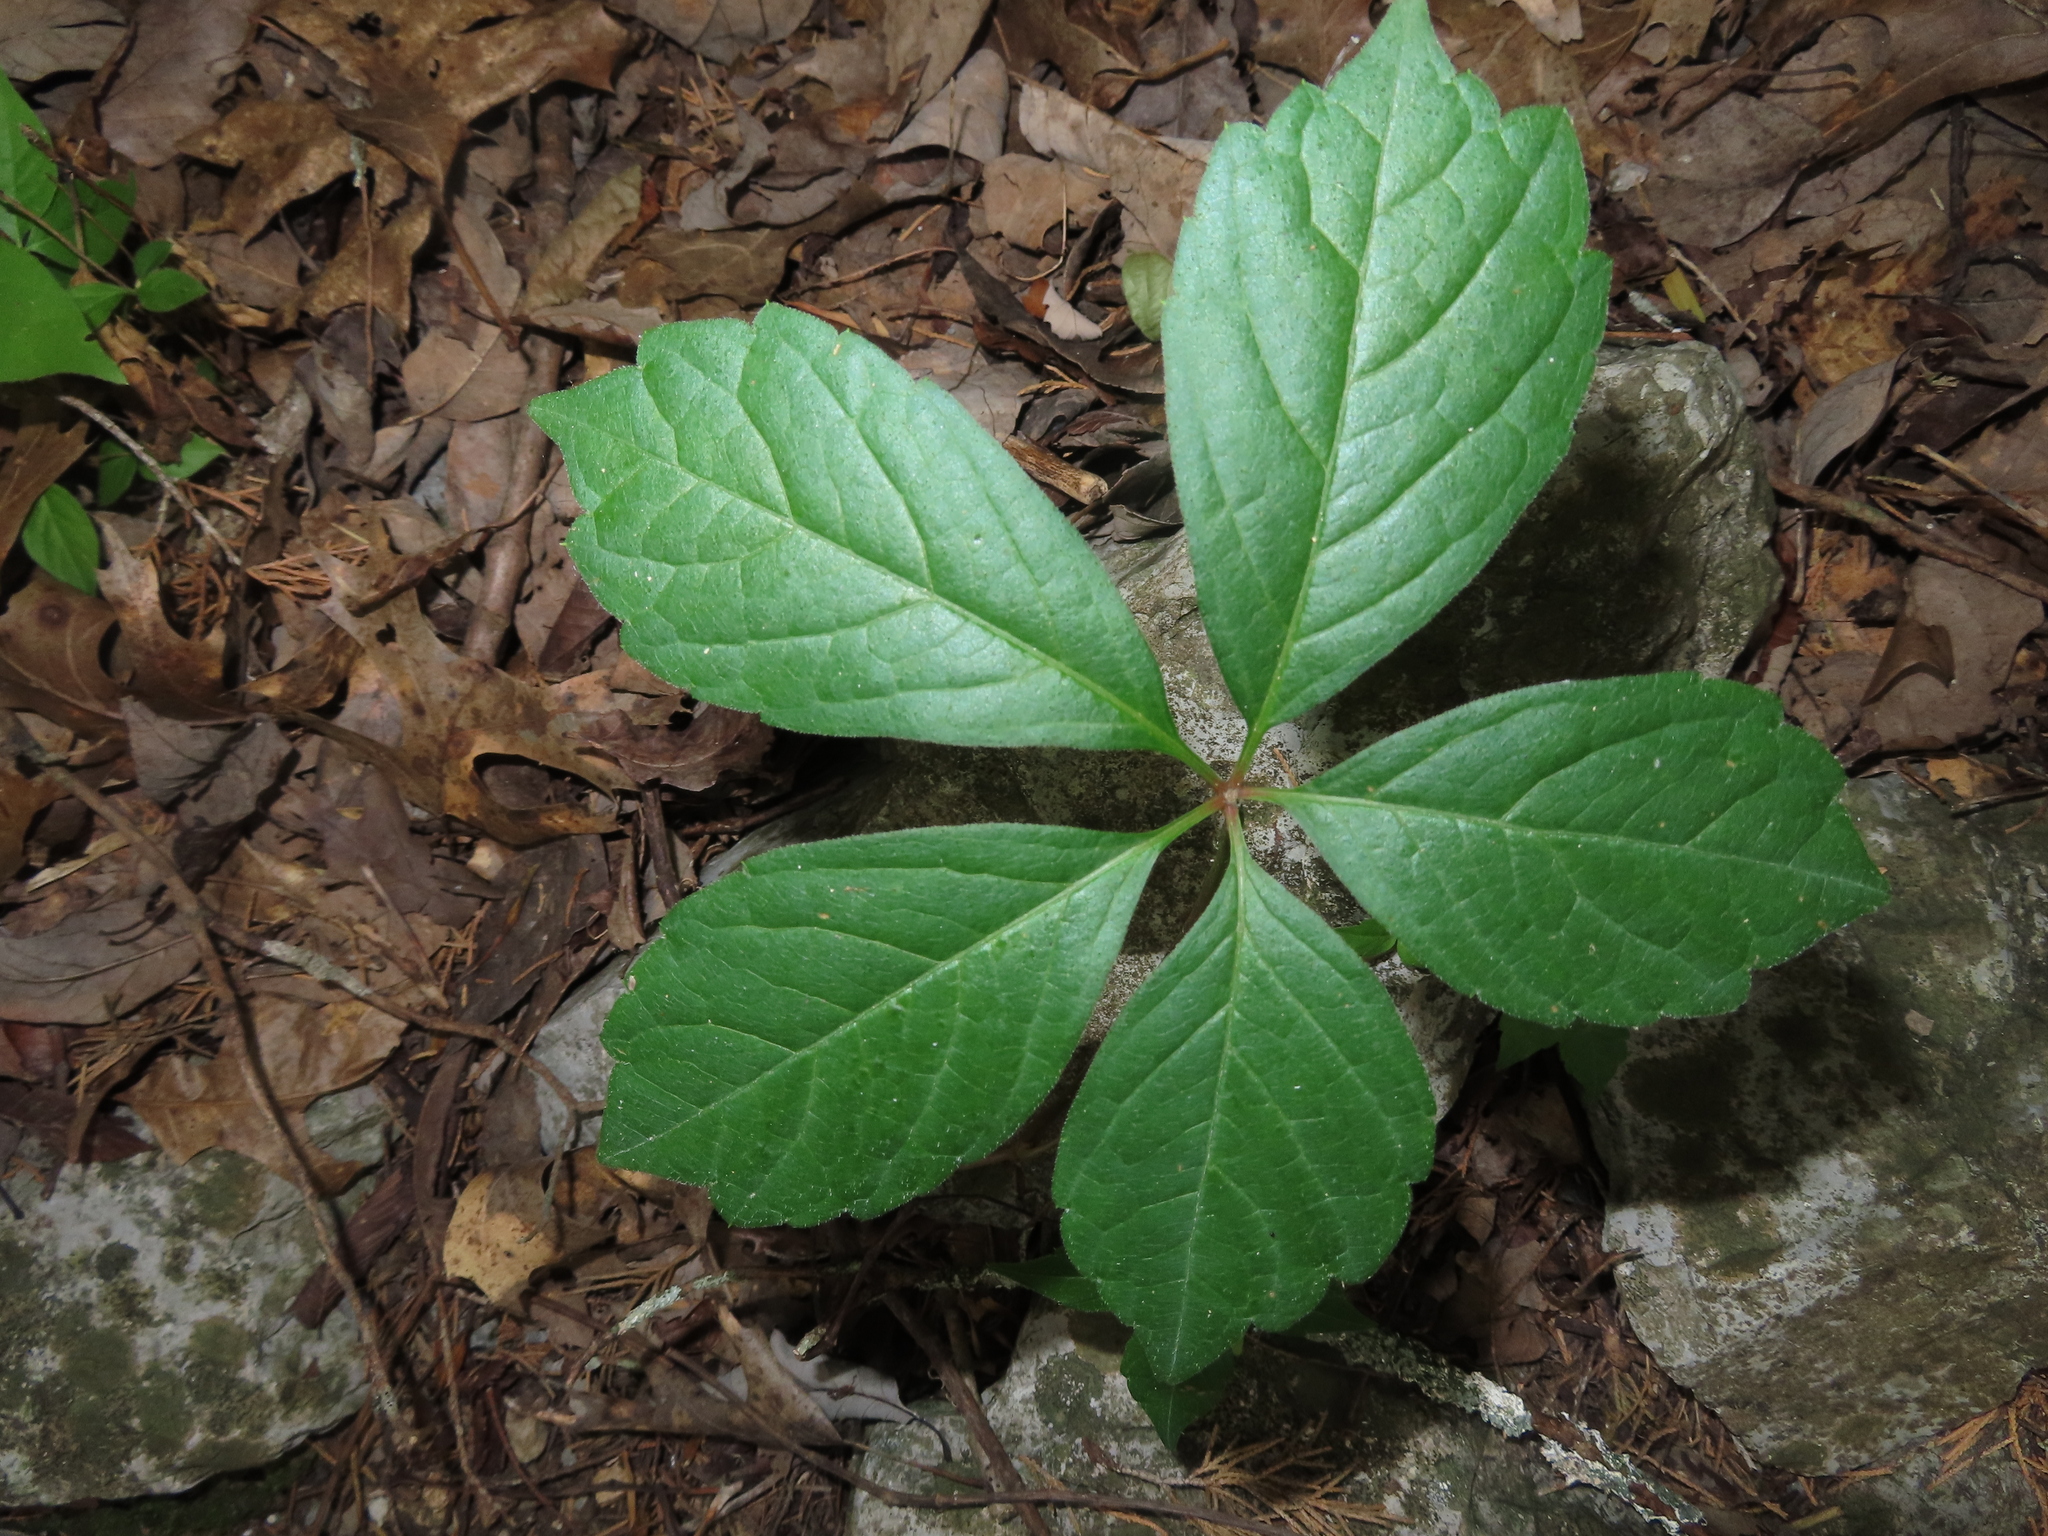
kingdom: Plantae
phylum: Tracheophyta
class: Magnoliopsida
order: Vitales
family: Vitaceae
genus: Parthenocissus
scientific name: Parthenocissus quinquefolia
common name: Virginia-creeper
